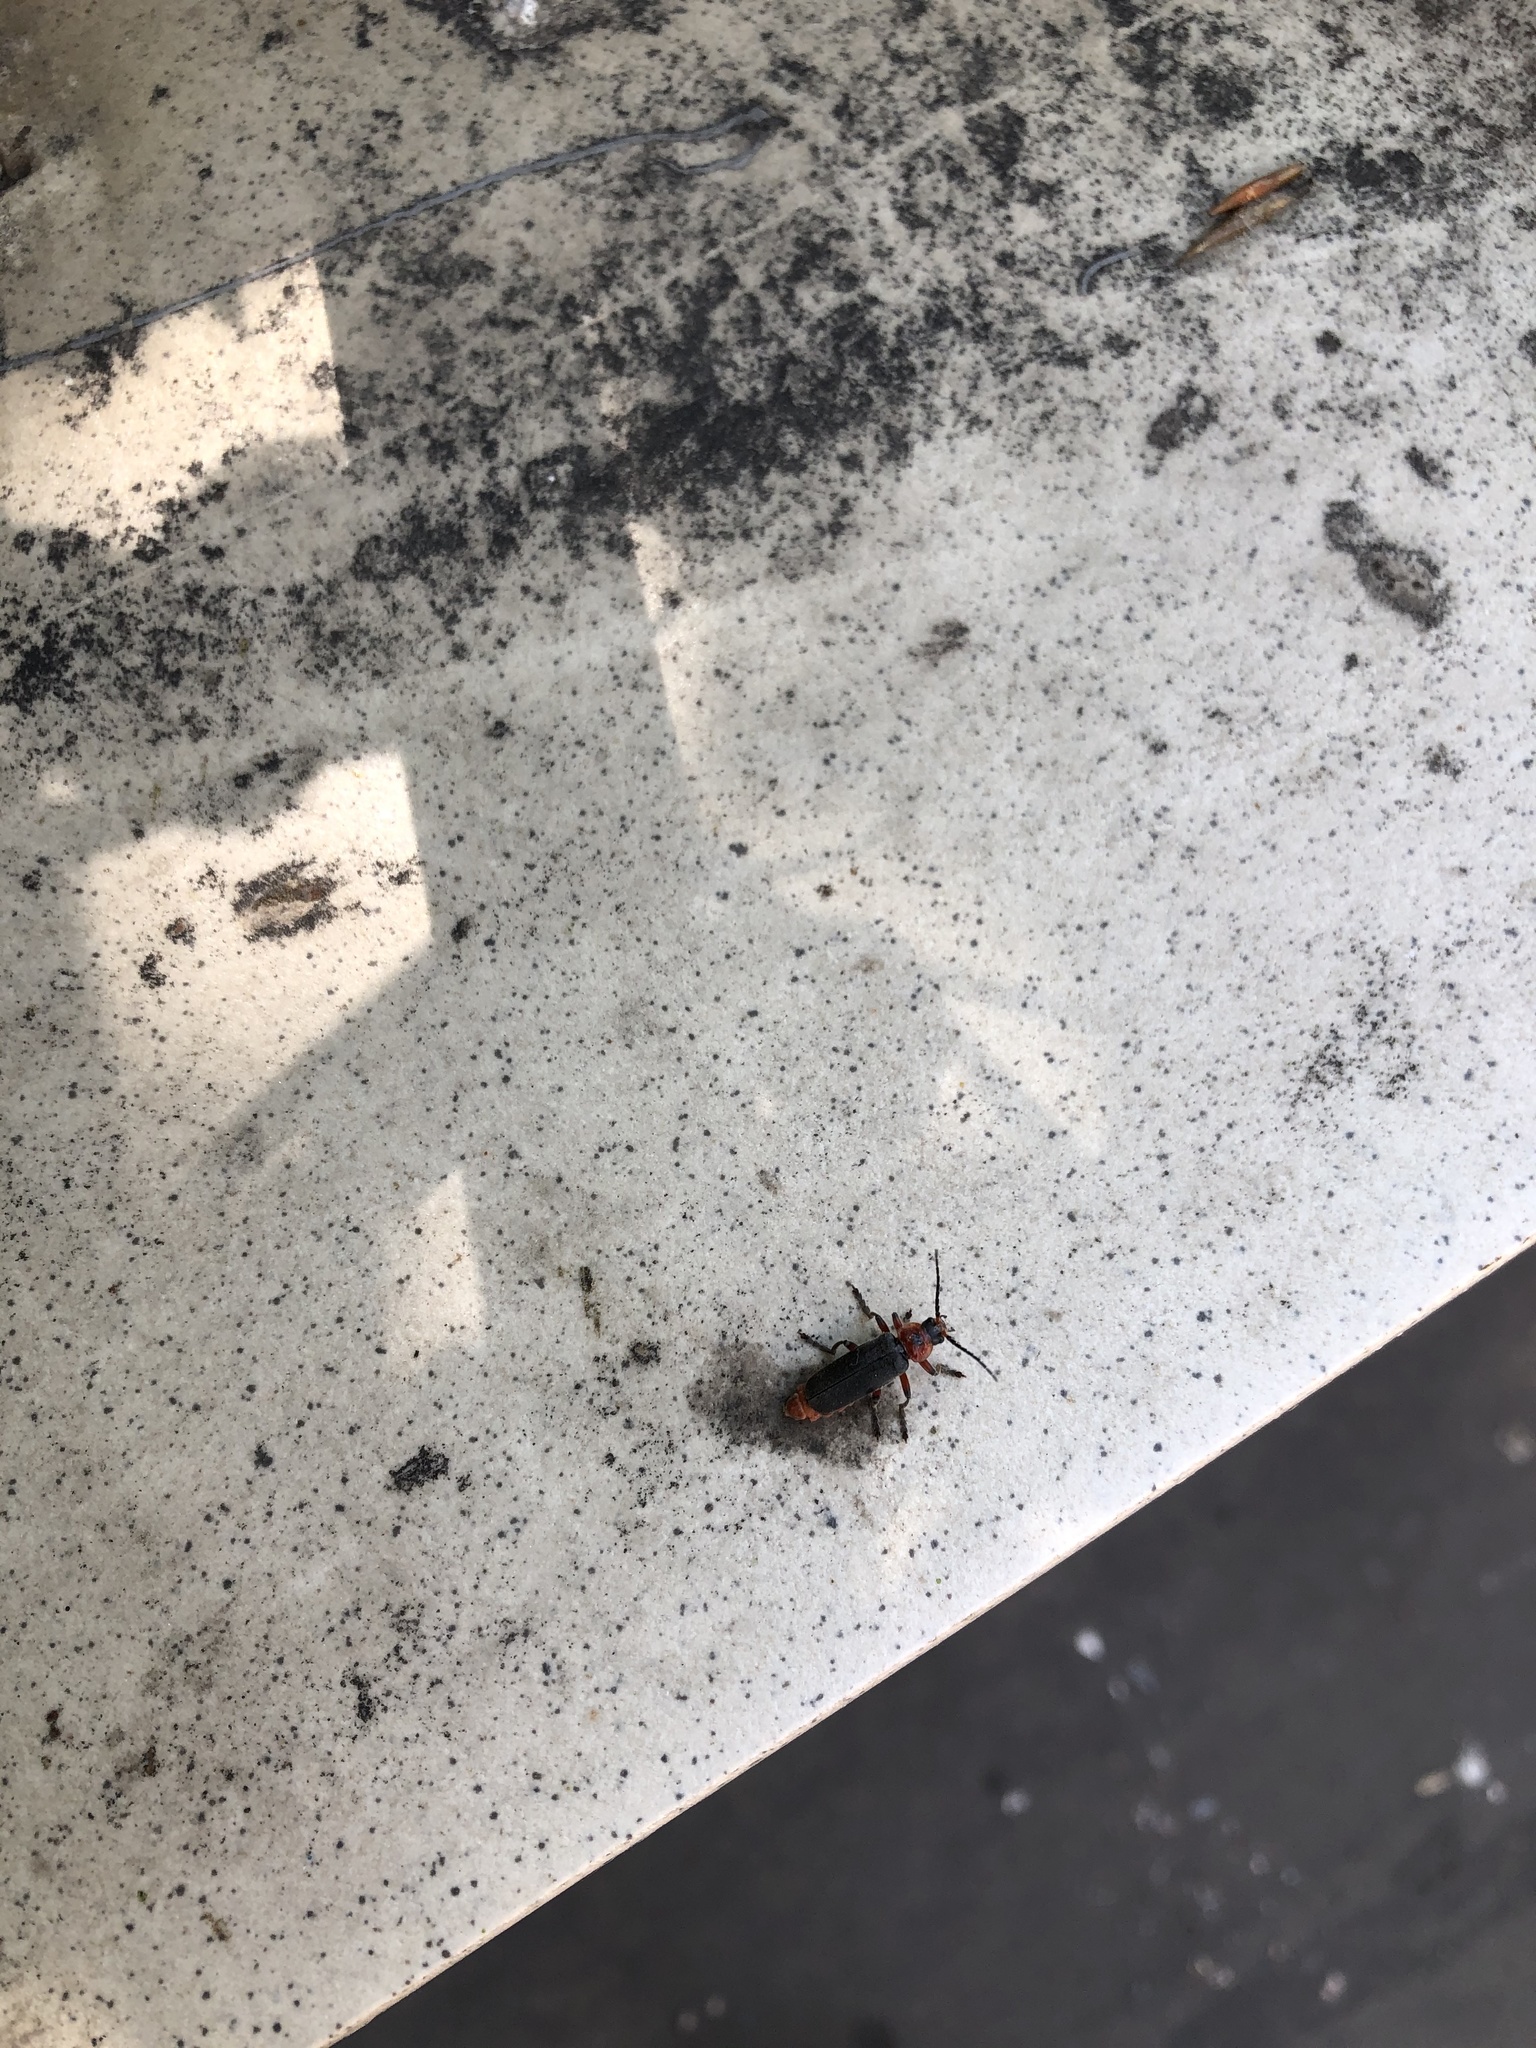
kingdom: Animalia
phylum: Arthropoda
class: Insecta
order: Coleoptera
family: Cantharidae
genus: Cantharis
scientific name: Cantharis rustica
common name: Soldier beetle
